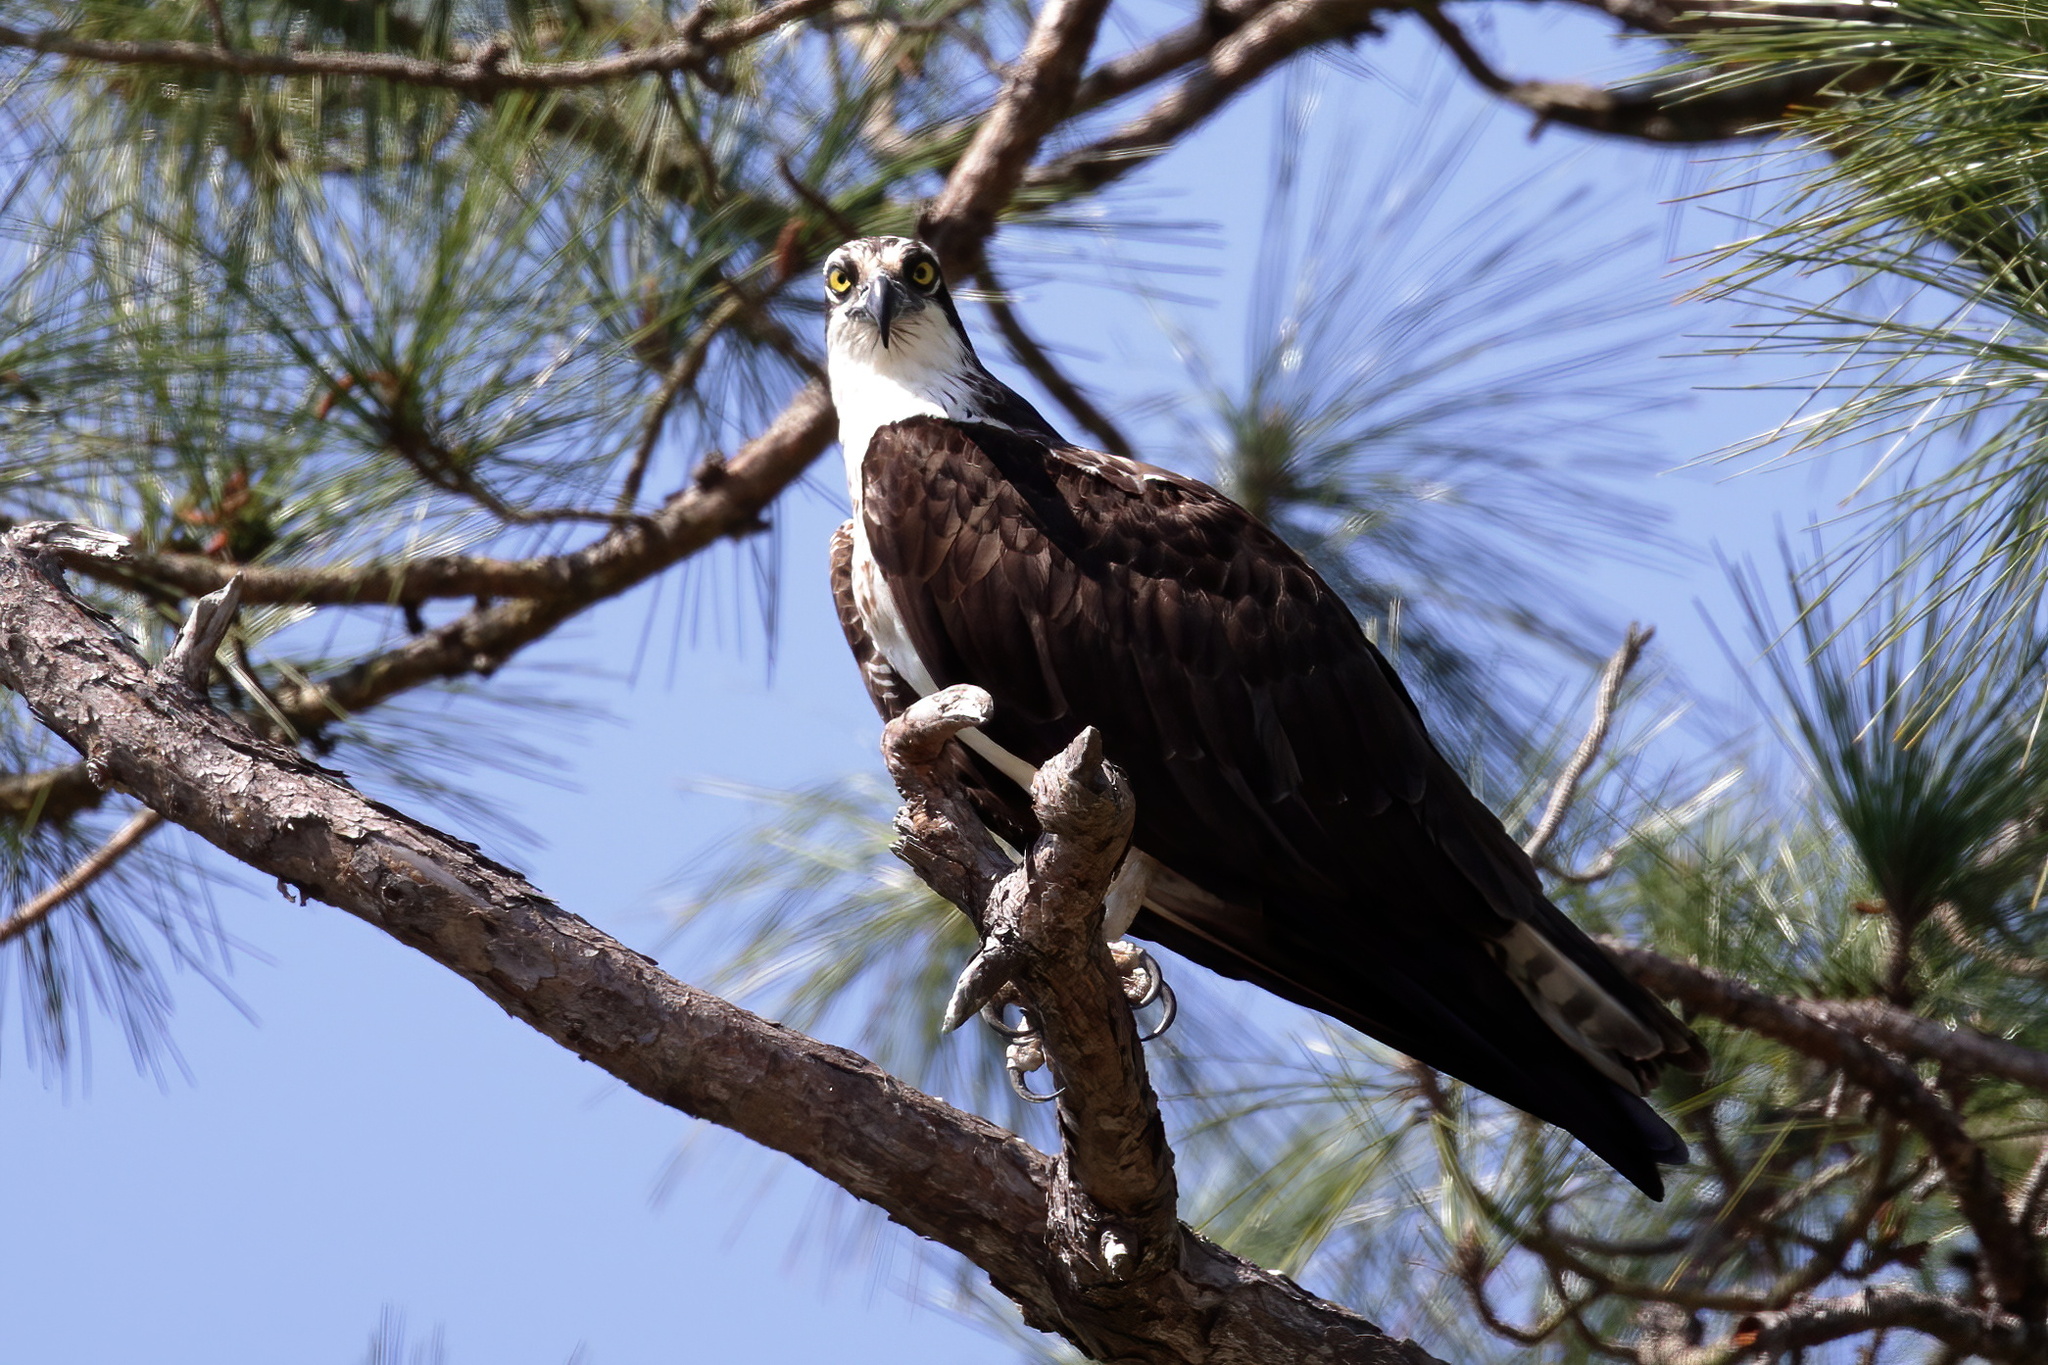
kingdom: Animalia
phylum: Chordata
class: Aves
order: Accipitriformes
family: Pandionidae
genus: Pandion
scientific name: Pandion haliaetus
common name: Osprey
